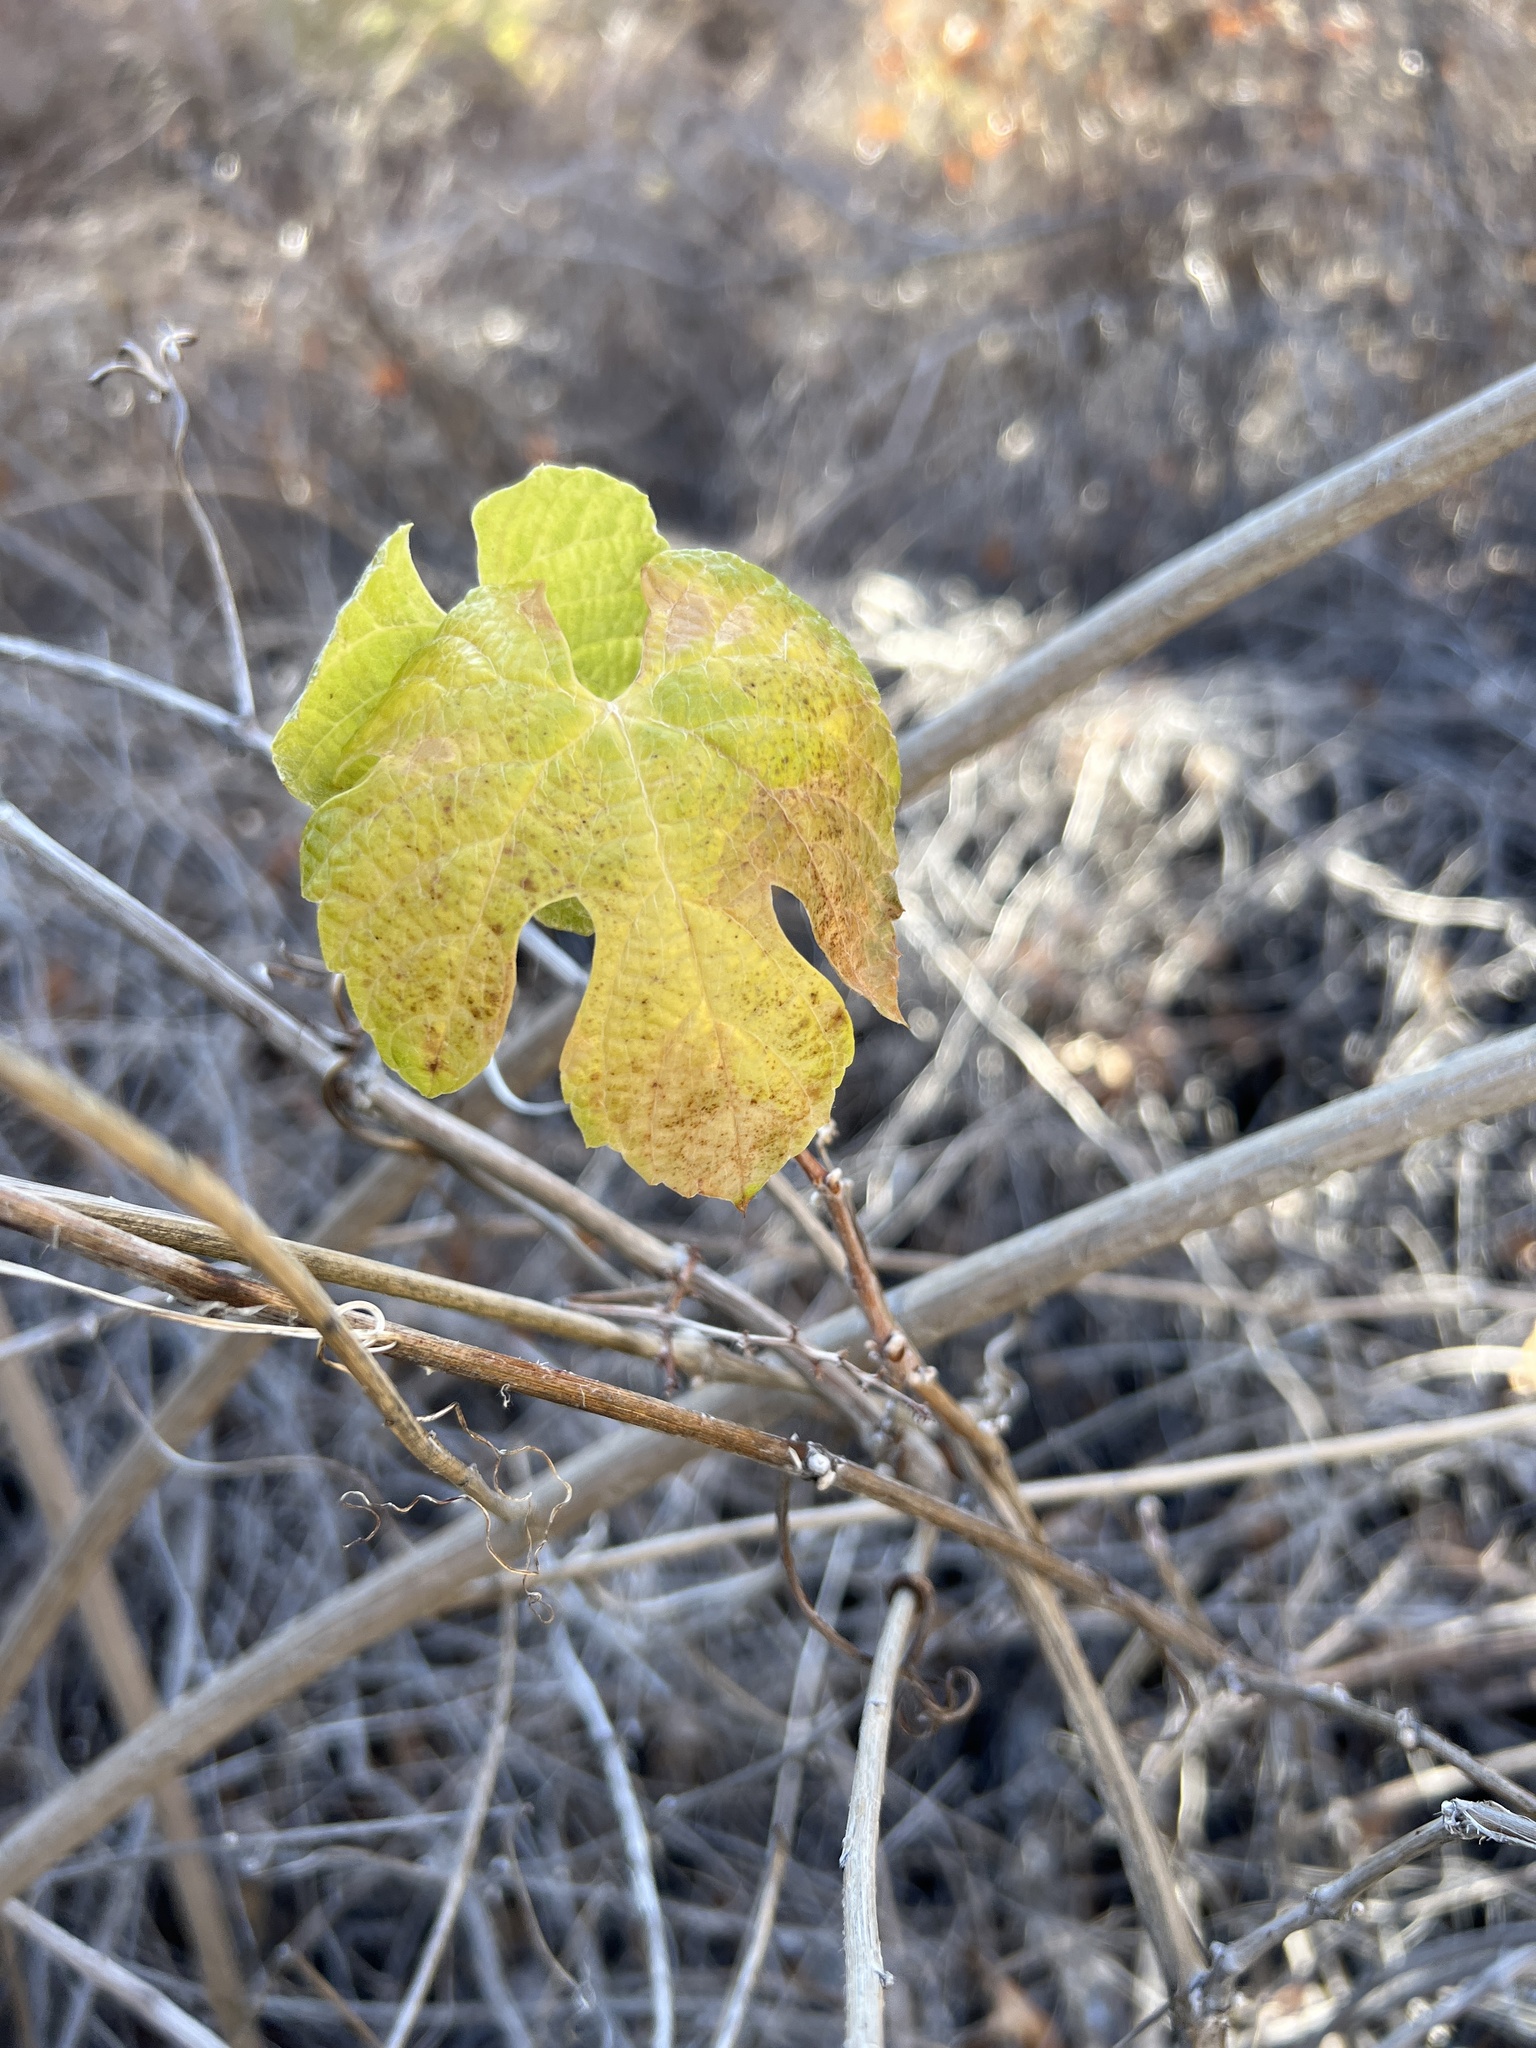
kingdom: Plantae
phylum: Tracheophyta
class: Magnoliopsida
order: Vitales
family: Vitaceae
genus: Vitis
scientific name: Vitis girdiana
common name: Desert wild grape
